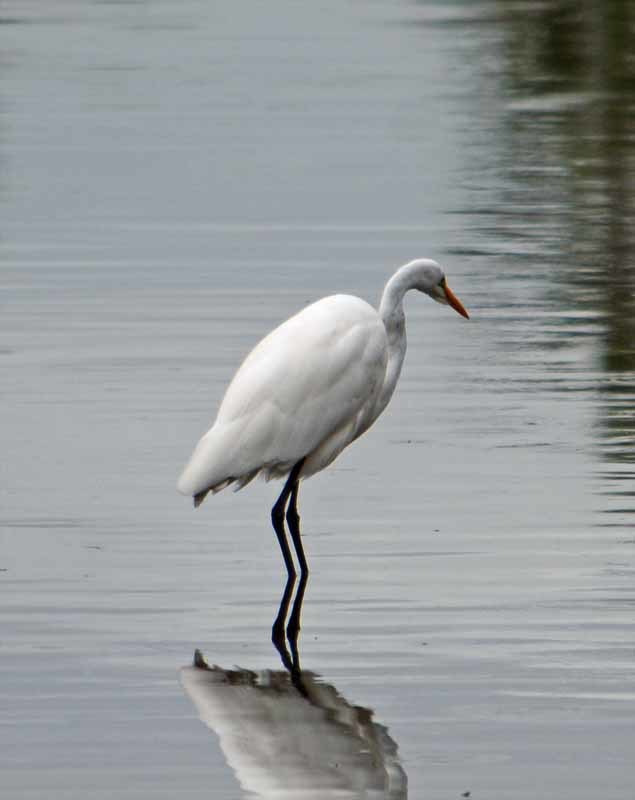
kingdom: Animalia
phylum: Chordata
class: Aves
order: Pelecaniformes
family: Ardeidae
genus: Ardea
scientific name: Ardea alba
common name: Great egret
